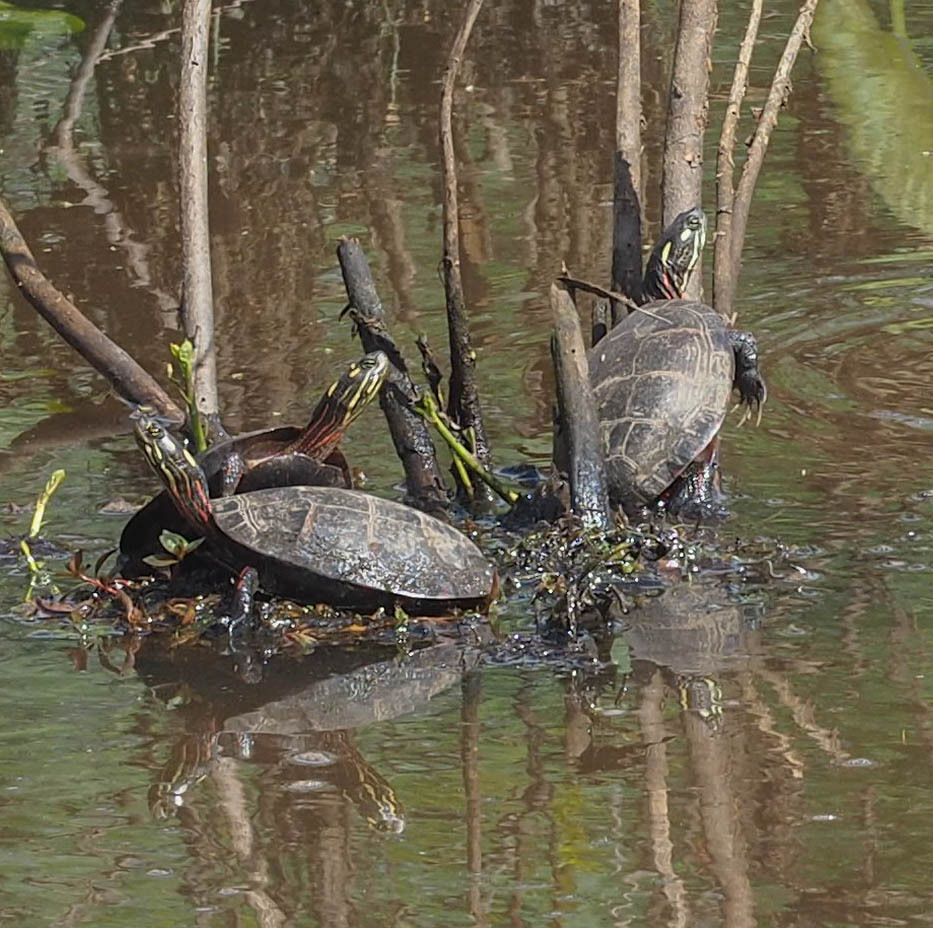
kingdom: Animalia
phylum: Chordata
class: Testudines
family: Emydidae
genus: Chrysemys
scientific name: Chrysemys picta
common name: Painted turtle
